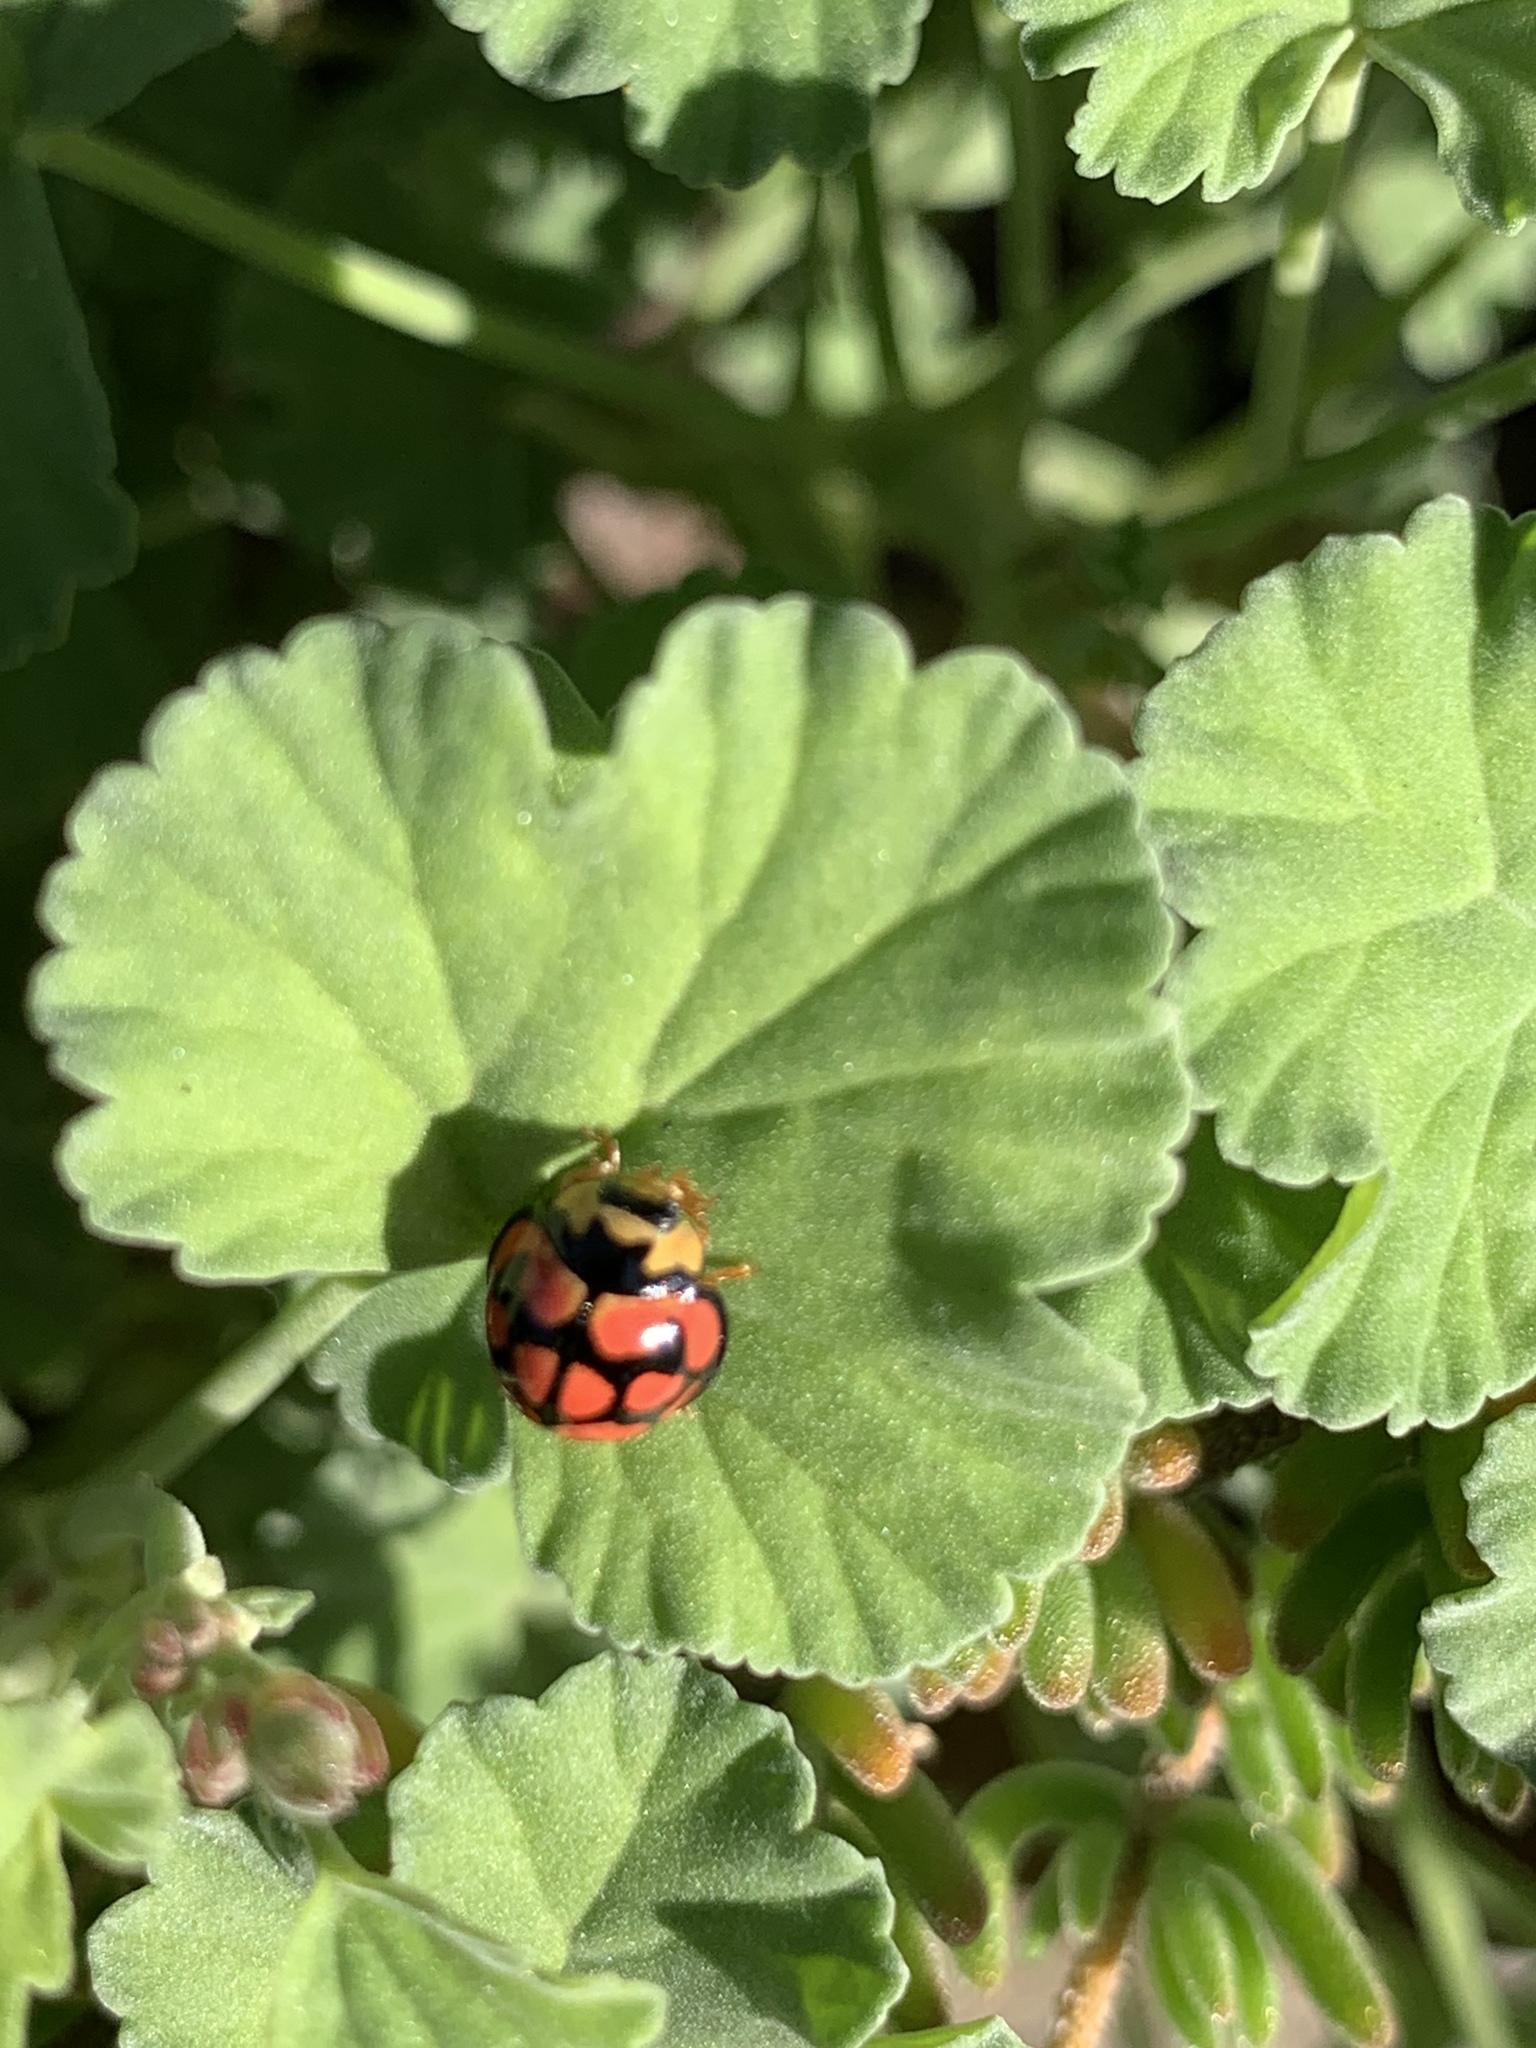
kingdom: Animalia
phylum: Arthropoda
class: Insecta
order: Coleoptera
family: Coccinellidae
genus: Cheilomenes
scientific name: Cheilomenes lunata
